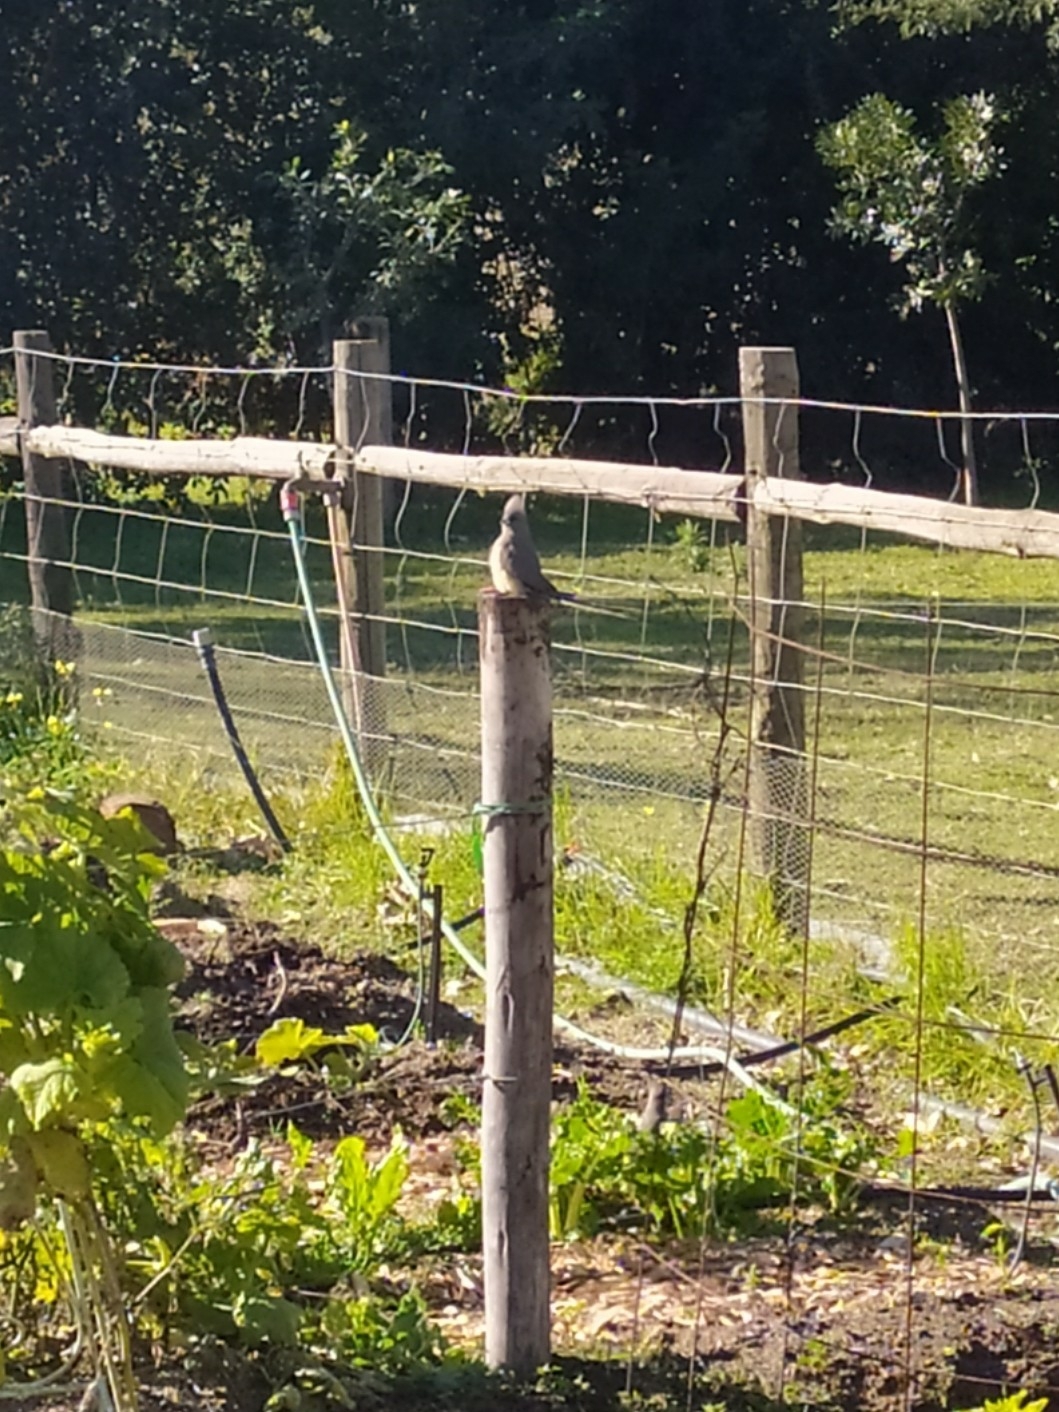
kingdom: Animalia
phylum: Chordata
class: Aves
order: Coliiformes
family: Coliidae
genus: Colius
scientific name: Colius colius
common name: White-backed mousebird
